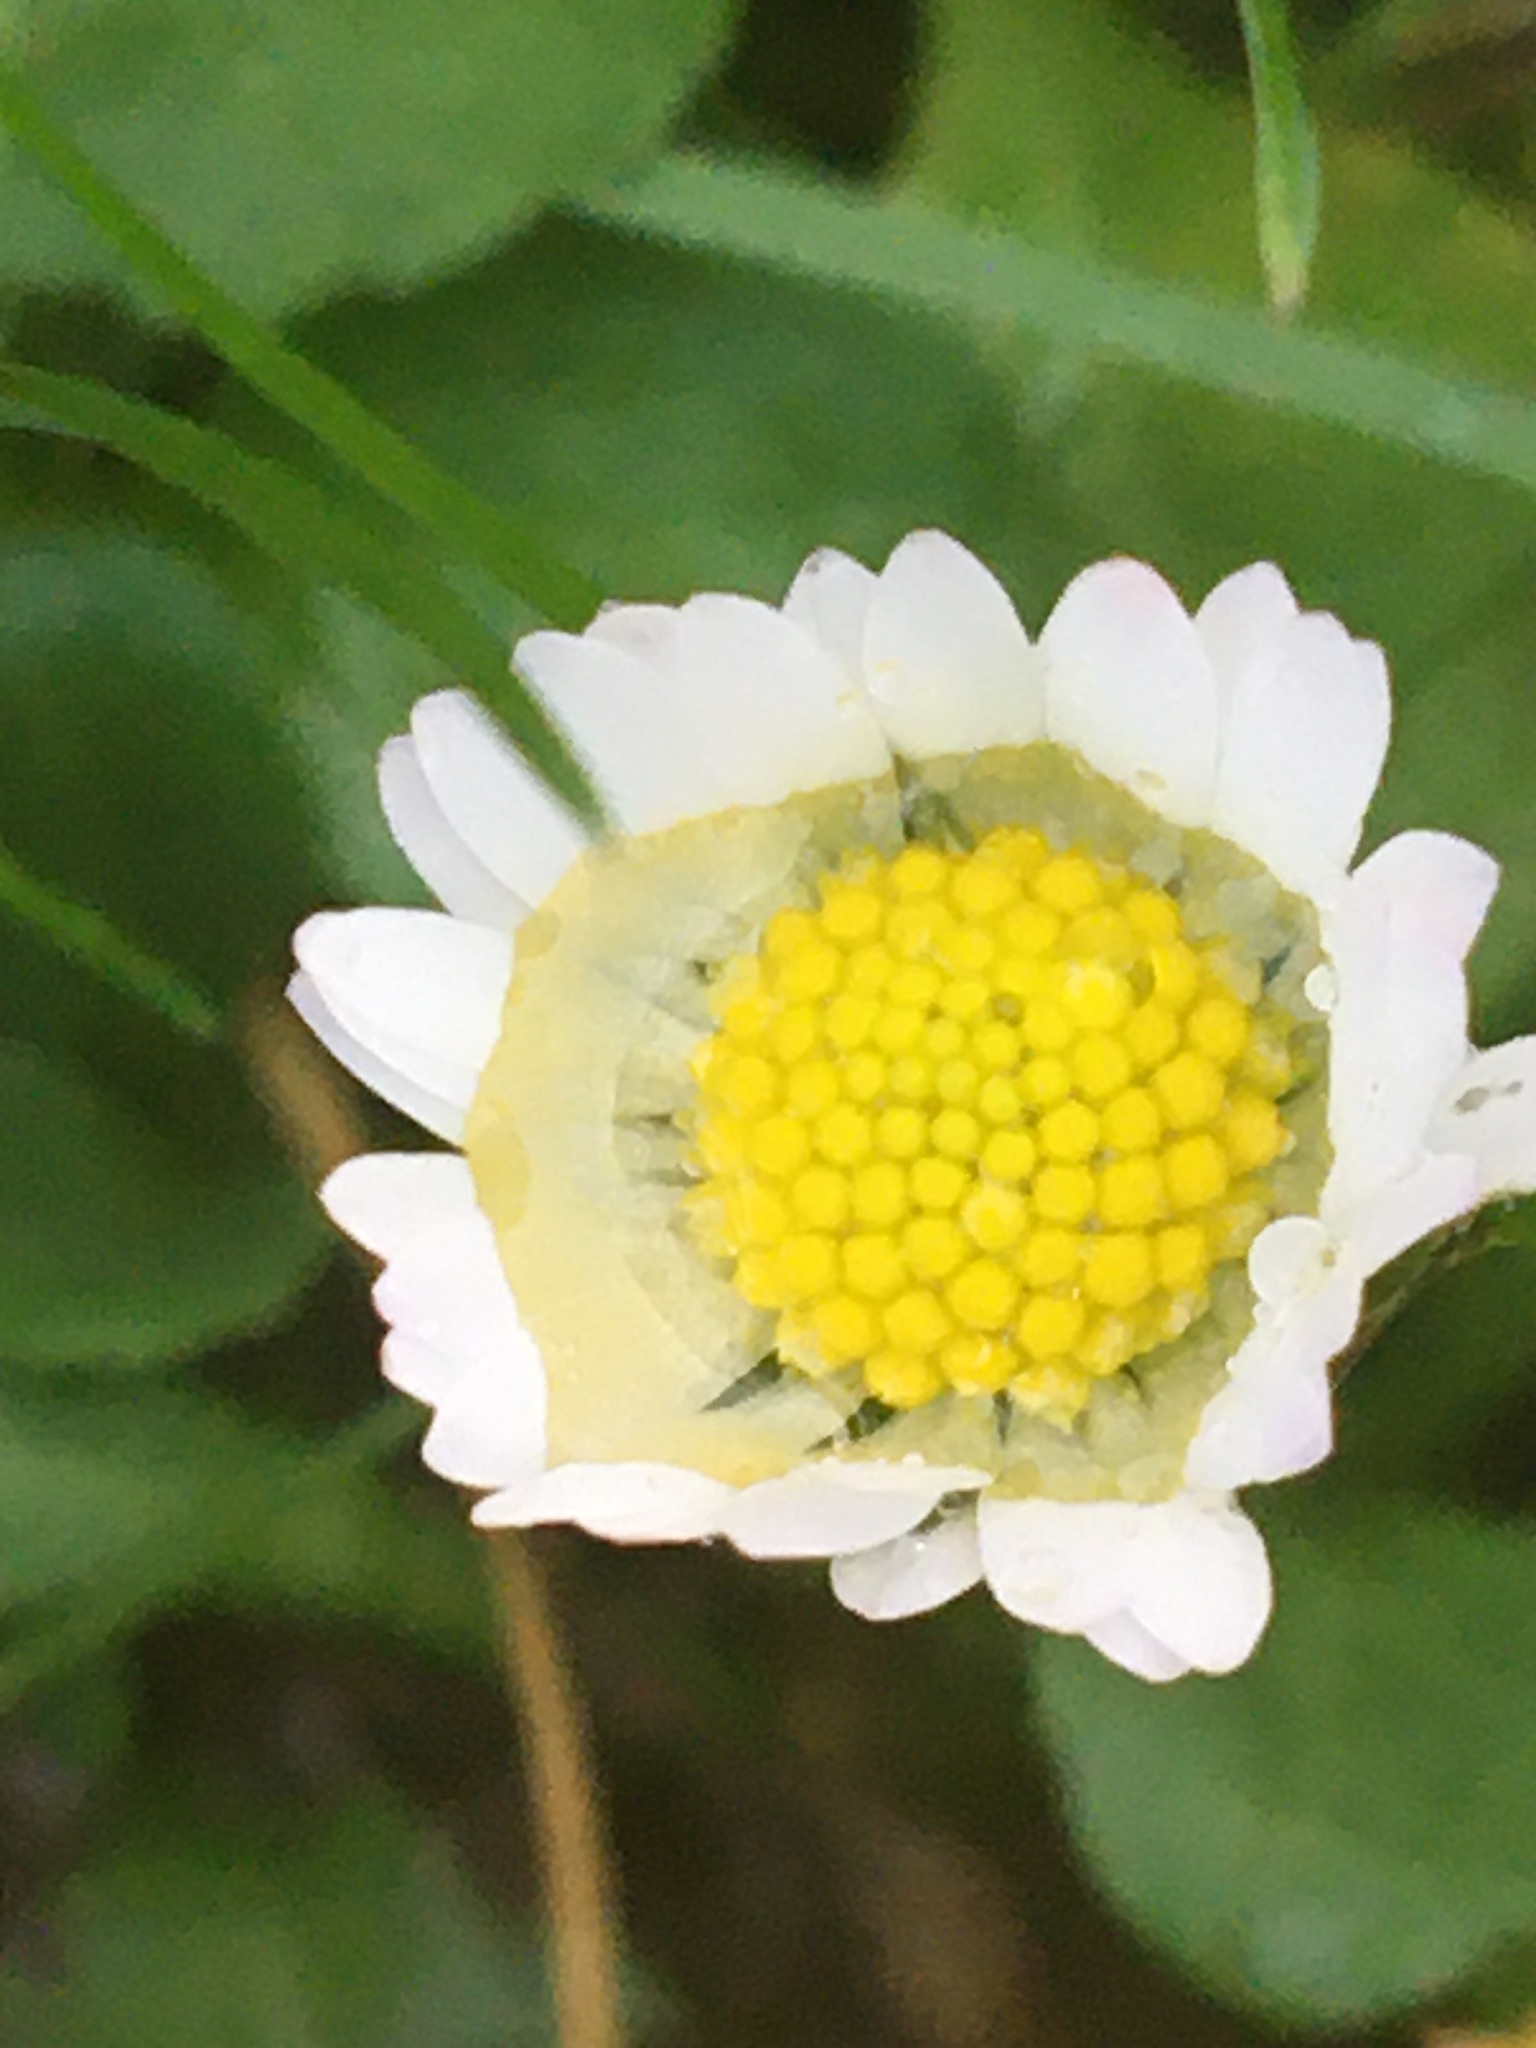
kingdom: Plantae
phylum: Tracheophyta
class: Magnoliopsida
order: Asterales
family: Asteraceae
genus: Bellis
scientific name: Bellis perennis
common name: Lawndaisy
